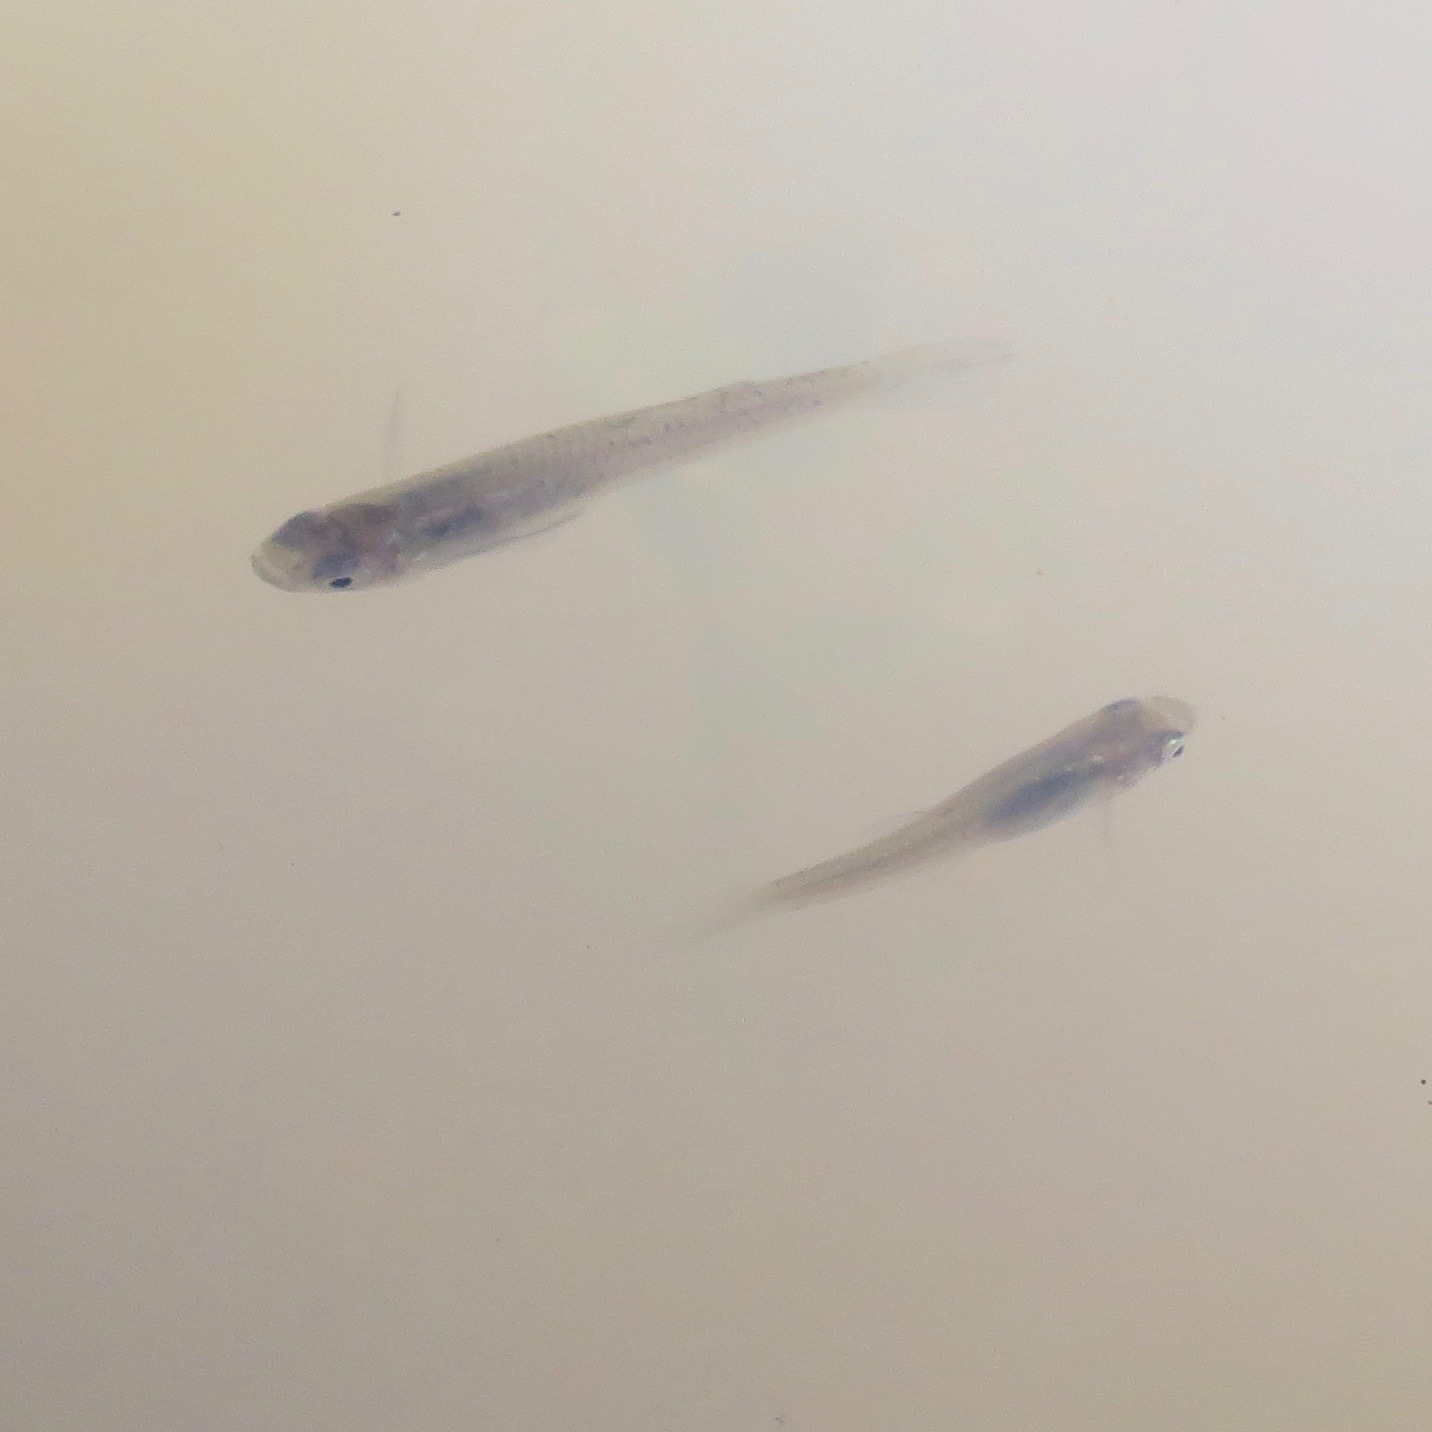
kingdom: Animalia
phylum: Chordata
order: Cyprinodontiformes
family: Poeciliidae
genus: Gambusia
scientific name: Gambusia affinis
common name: Mosquitofish
